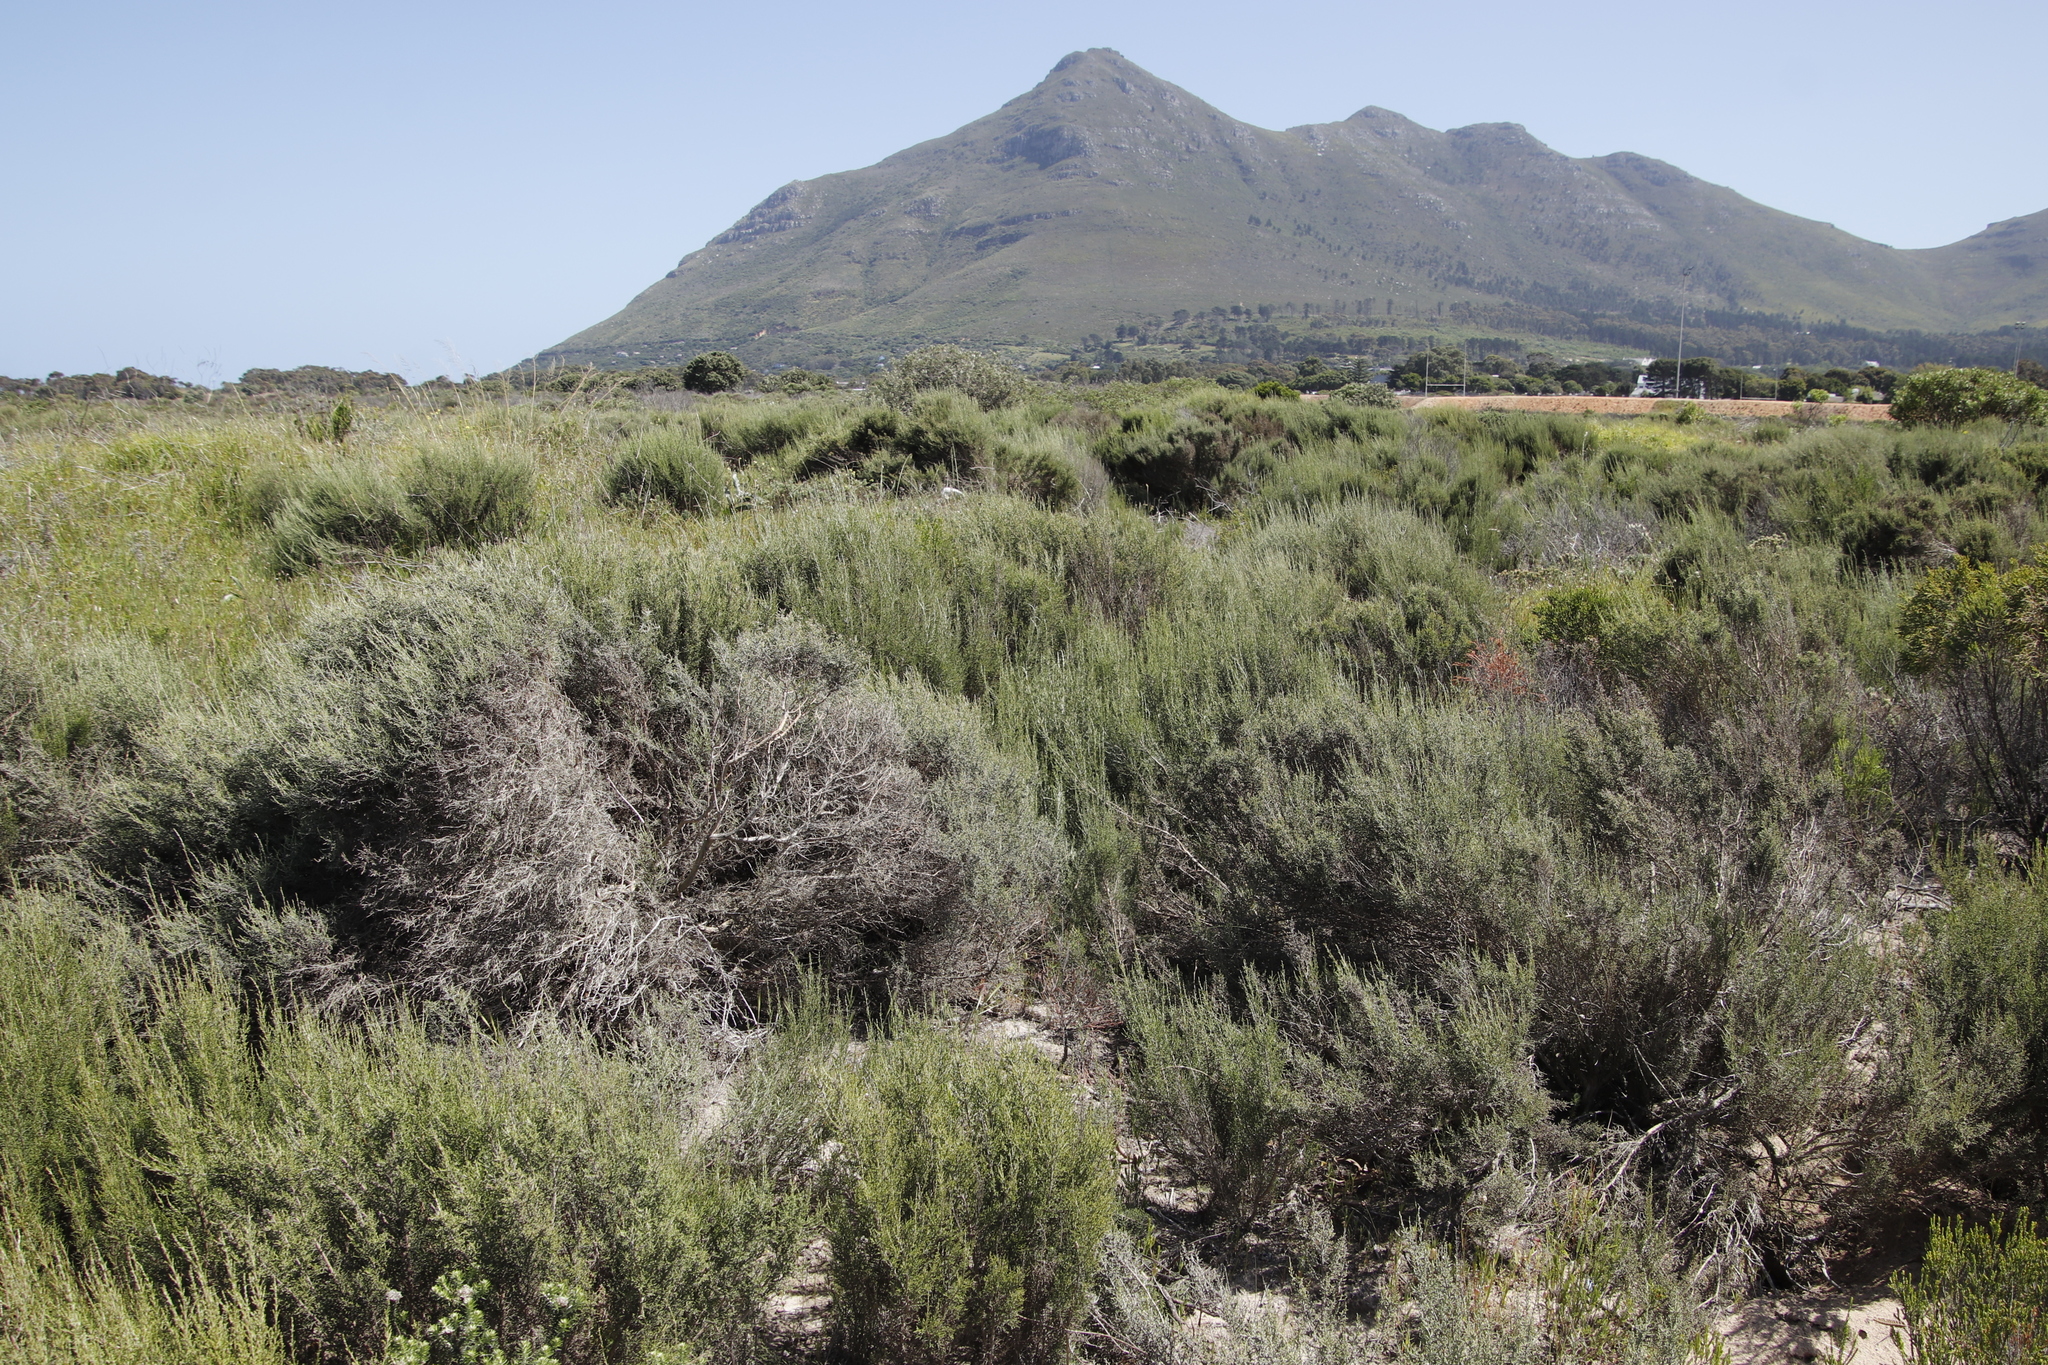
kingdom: Plantae
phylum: Tracheophyta
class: Magnoliopsida
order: Asterales
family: Asteraceae
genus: Dicerothamnus
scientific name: Dicerothamnus rhinocerotis
